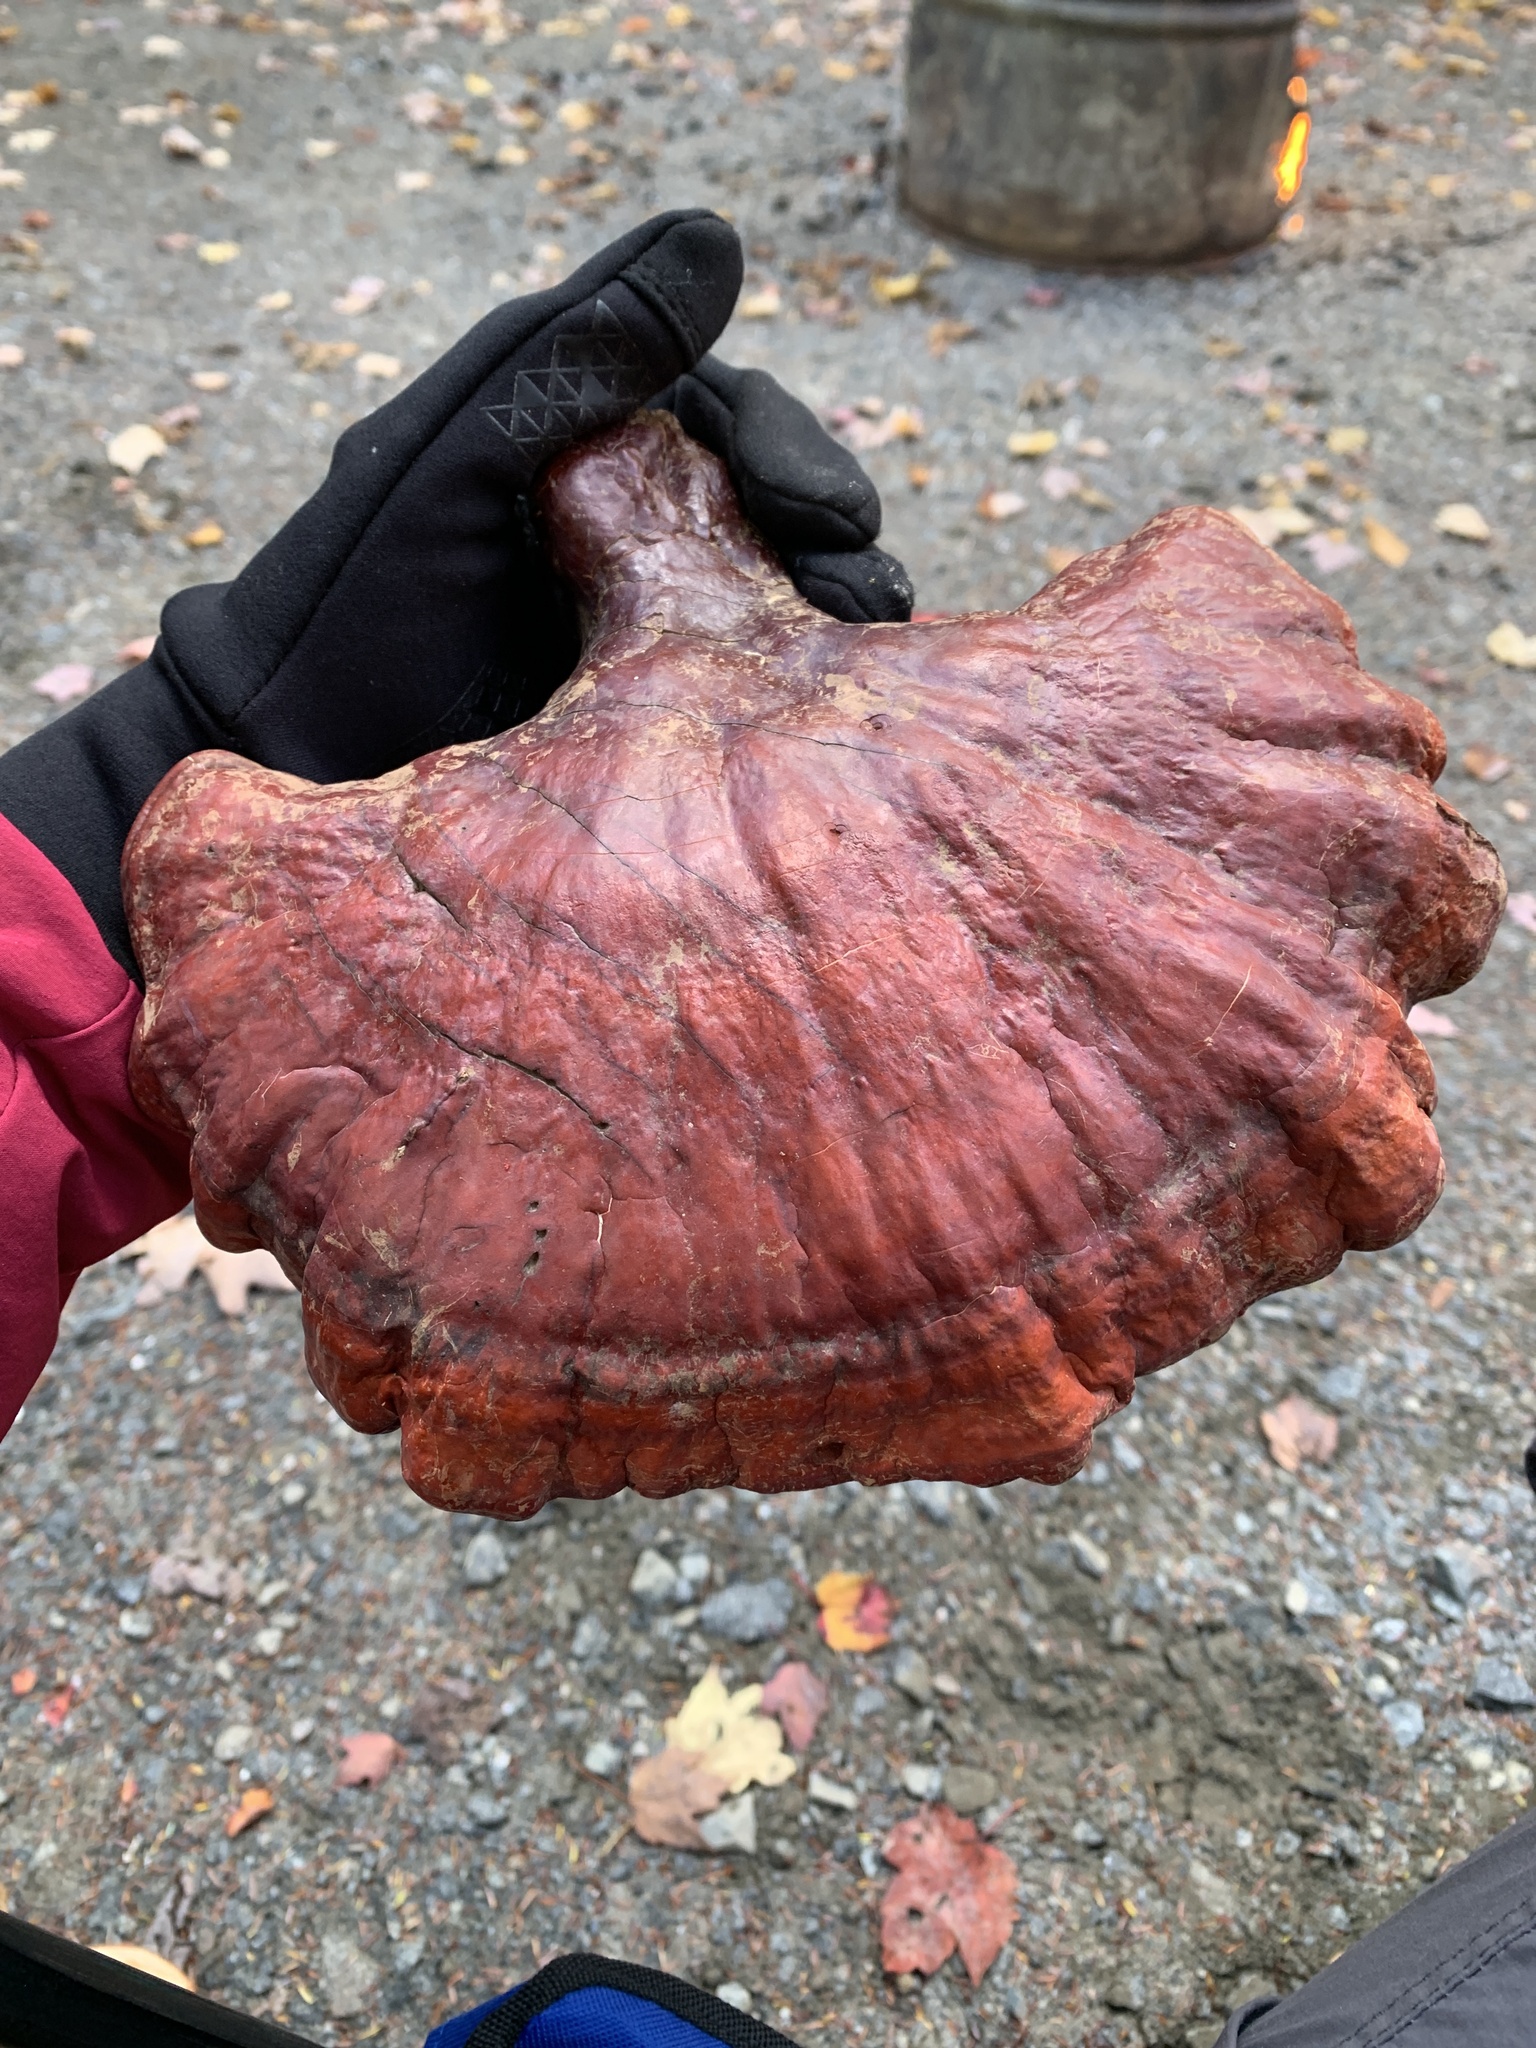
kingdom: Fungi
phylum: Basidiomycota
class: Agaricomycetes
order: Polyporales
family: Polyporaceae
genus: Ganoderma
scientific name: Ganoderma tsugae
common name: Hemlock varnish shelf
